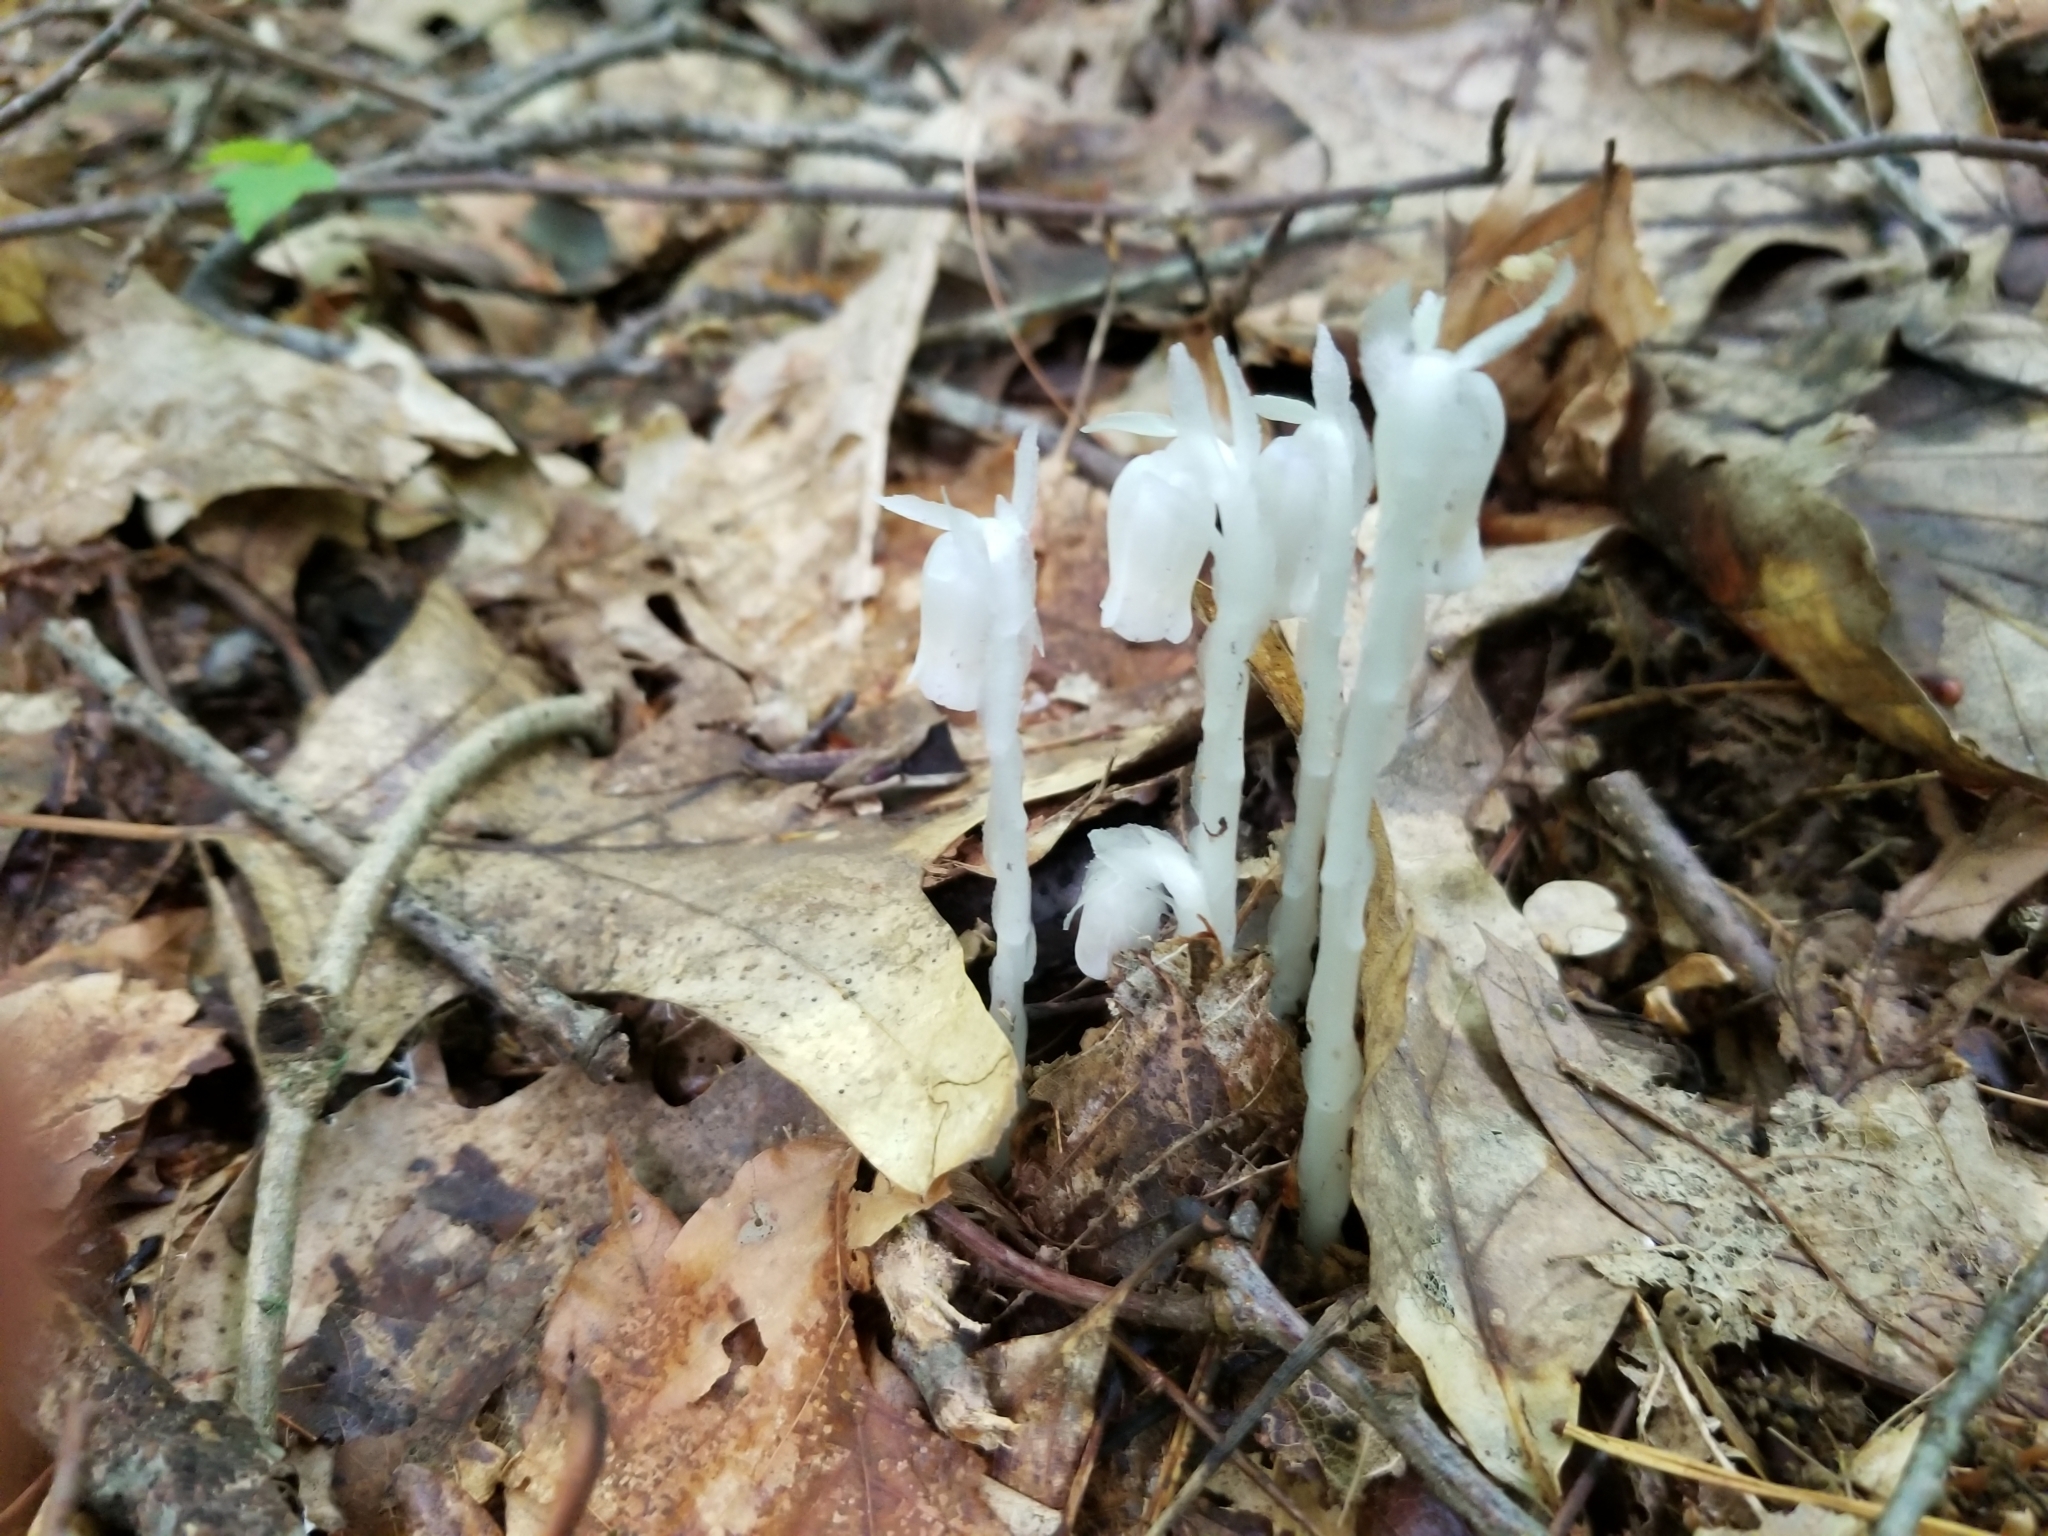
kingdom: Plantae
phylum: Tracheophyta
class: Magnoliopsida
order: Ericales
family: Ericaceae
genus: Monotropa
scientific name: Monotropa uniflora
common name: Convulsion root
